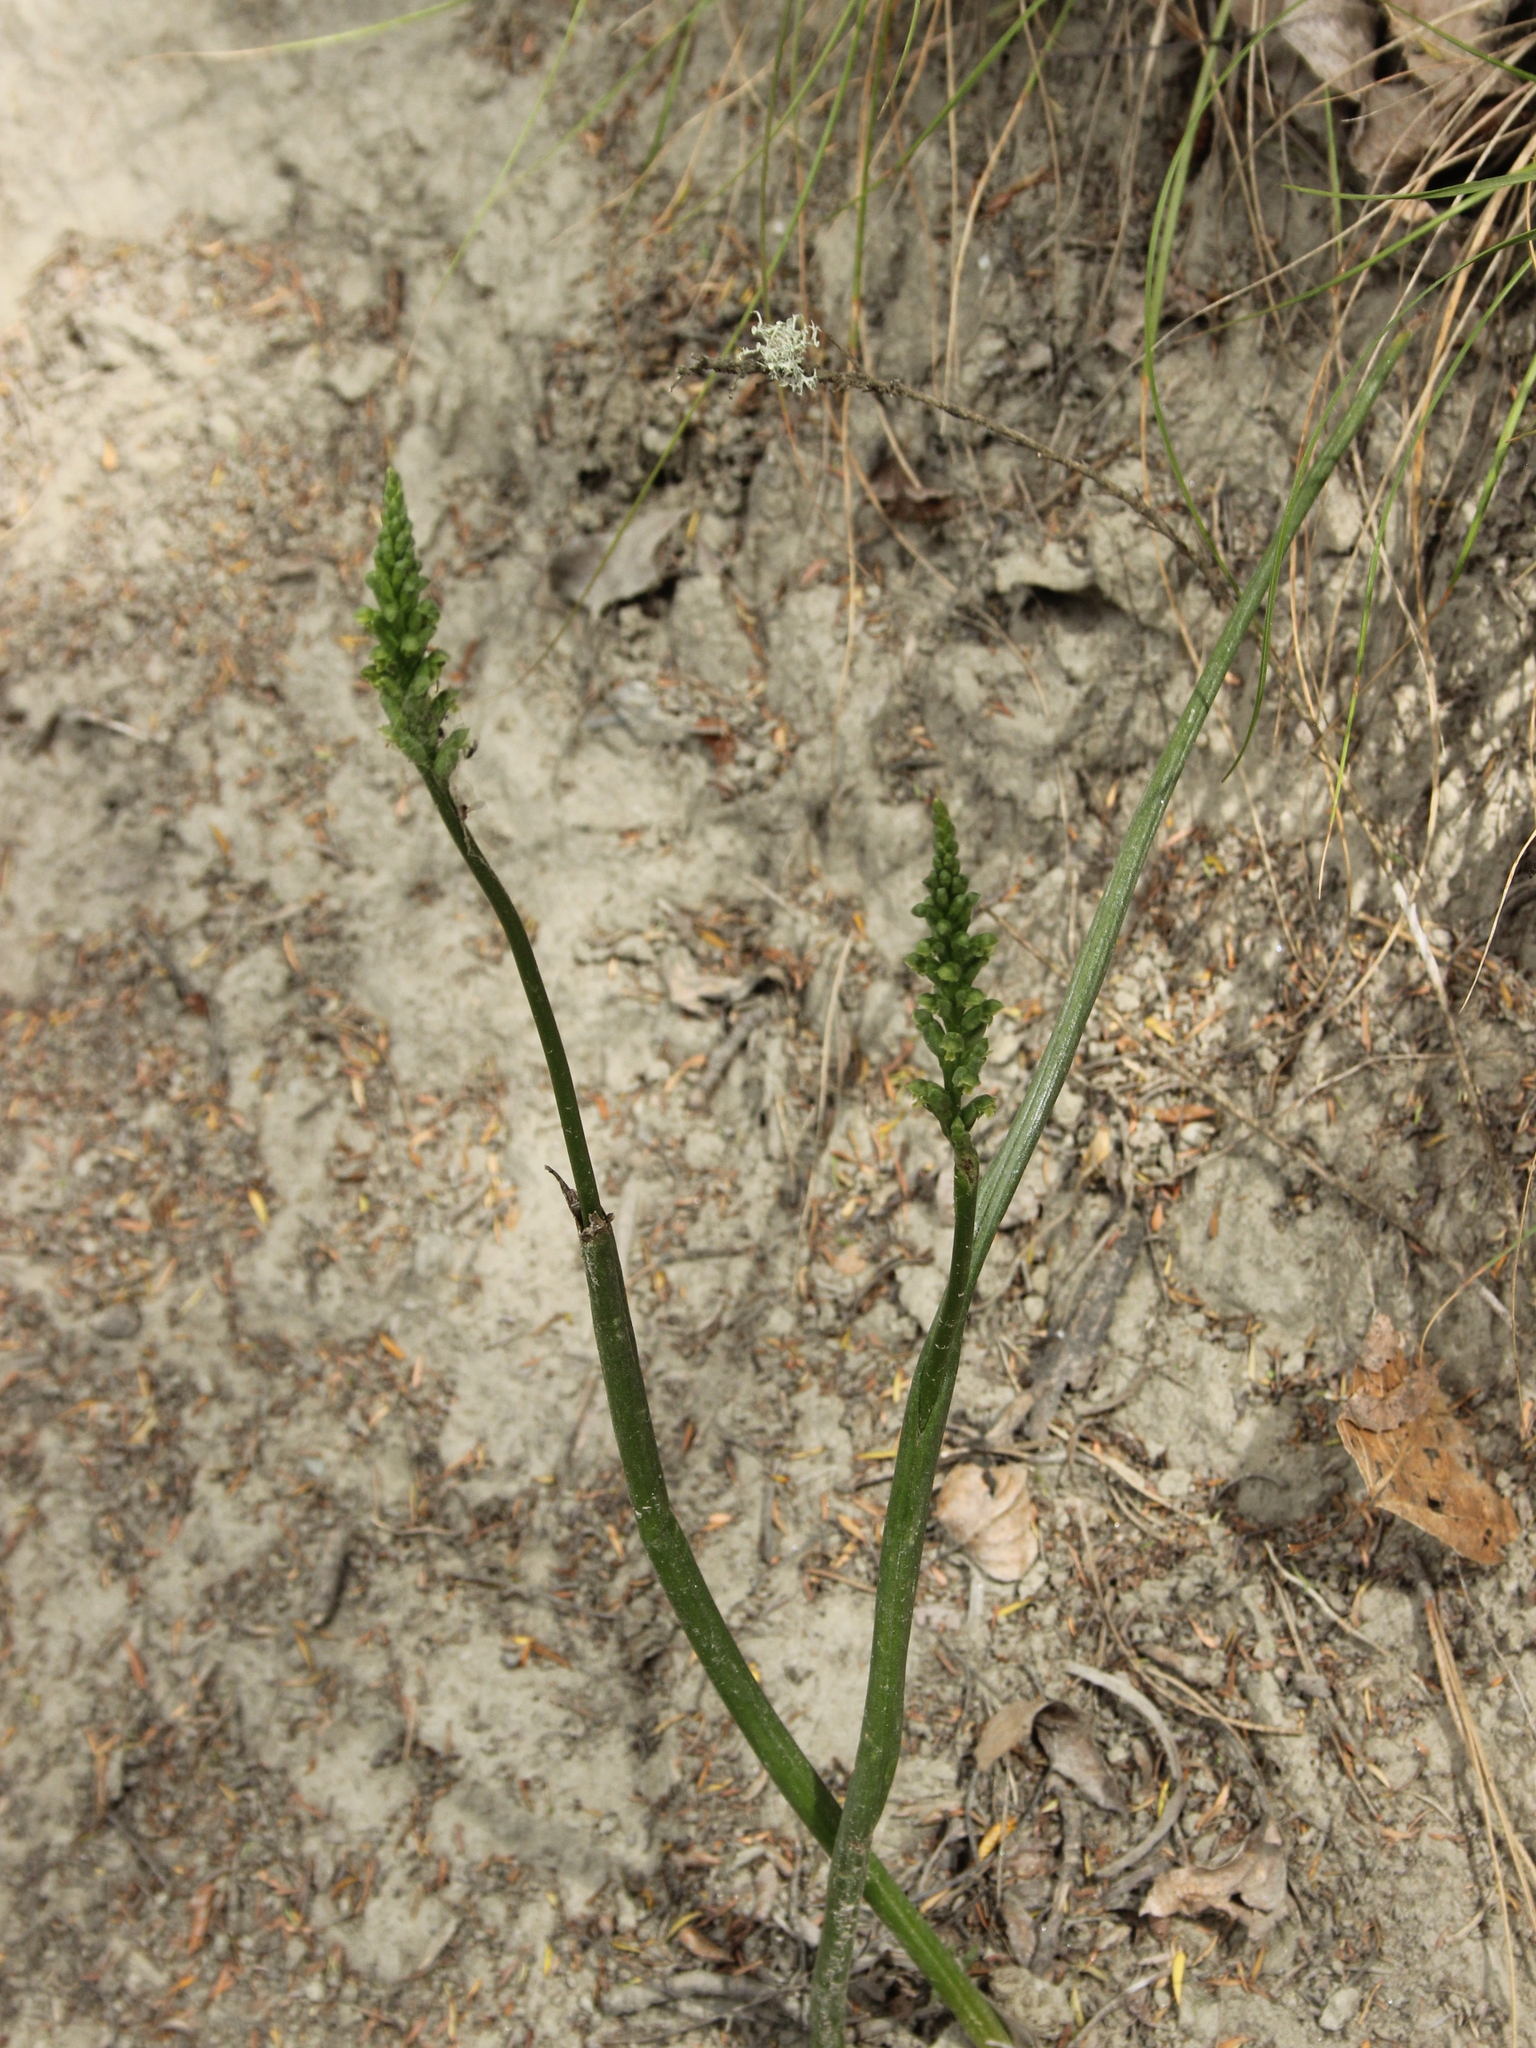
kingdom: Plantae
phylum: Tracheophyta
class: Liliopsida
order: Asparagales
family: Orchidaceae
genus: Microtis
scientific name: Microtis unifolia
